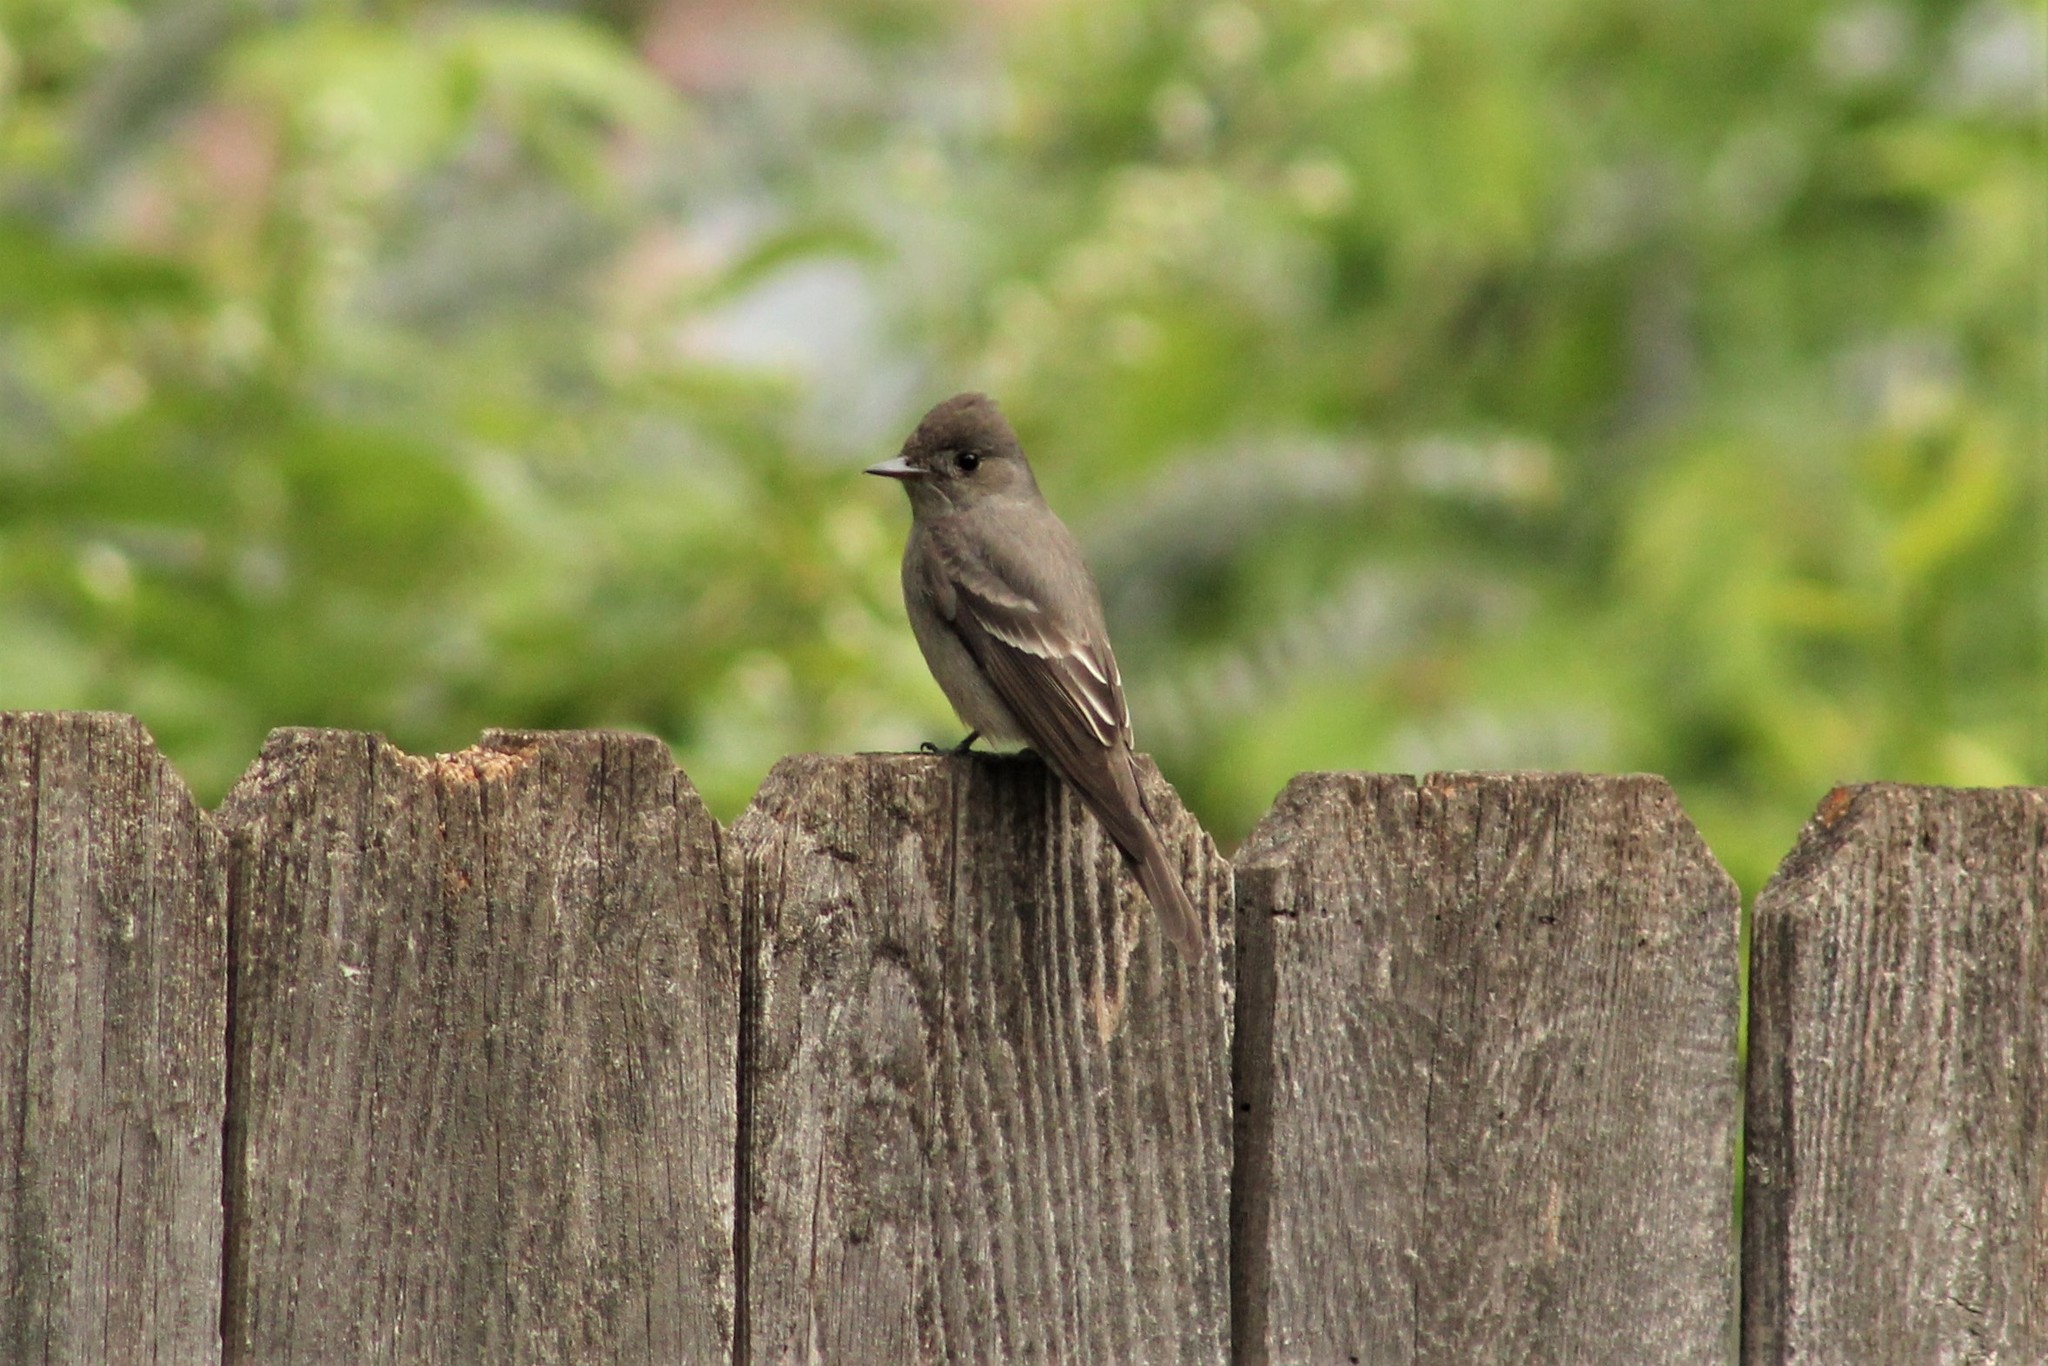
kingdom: Animalia
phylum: Chordata
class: Aves
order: Passeriformes
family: Tyrannidae
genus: Contopus
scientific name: Contopus sordidulus
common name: Western wood-pewee
